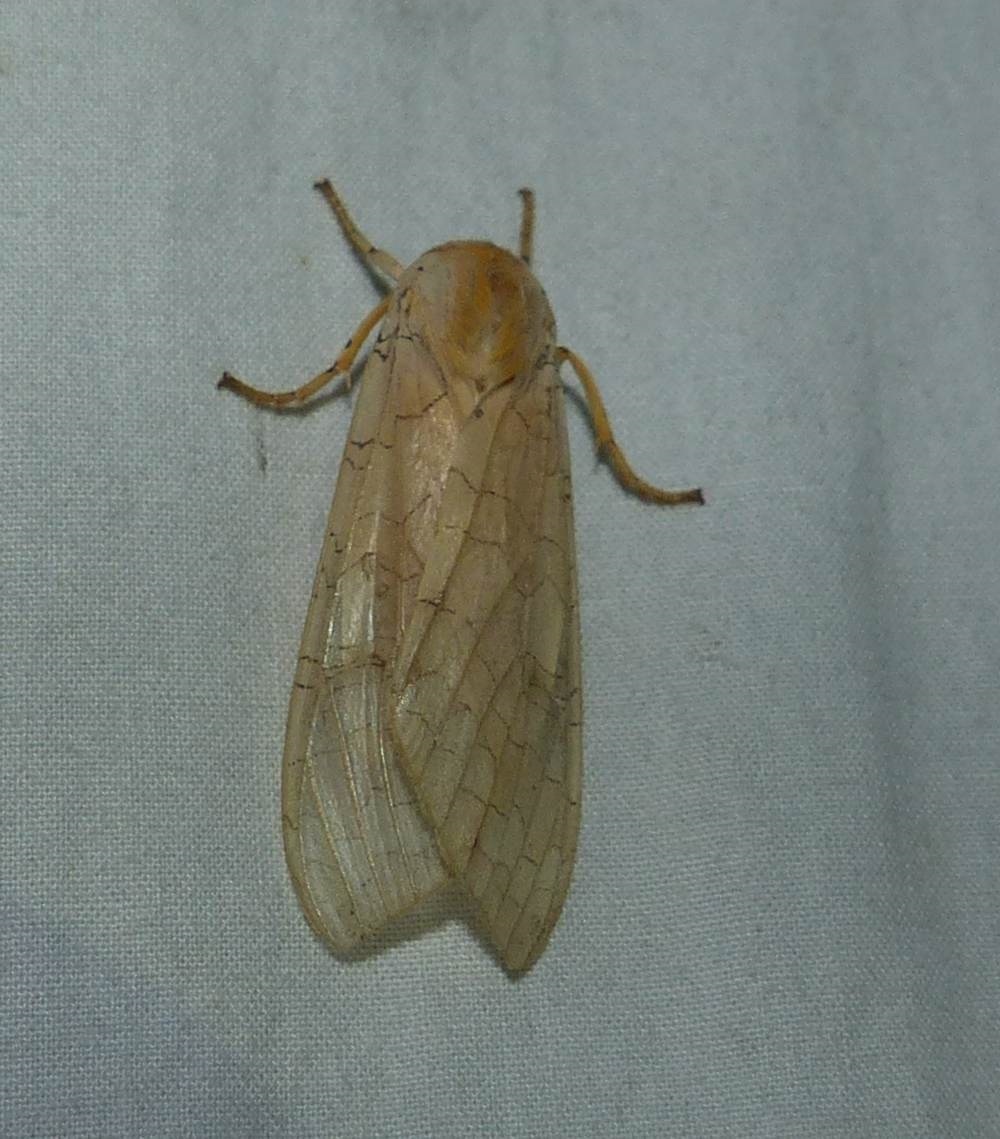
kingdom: Animalia
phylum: Arthropoda
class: Insecta
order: Lepidoptera
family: Erebidae
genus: Halysidota
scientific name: Halysidota tessellaris
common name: Banded tussock moth
